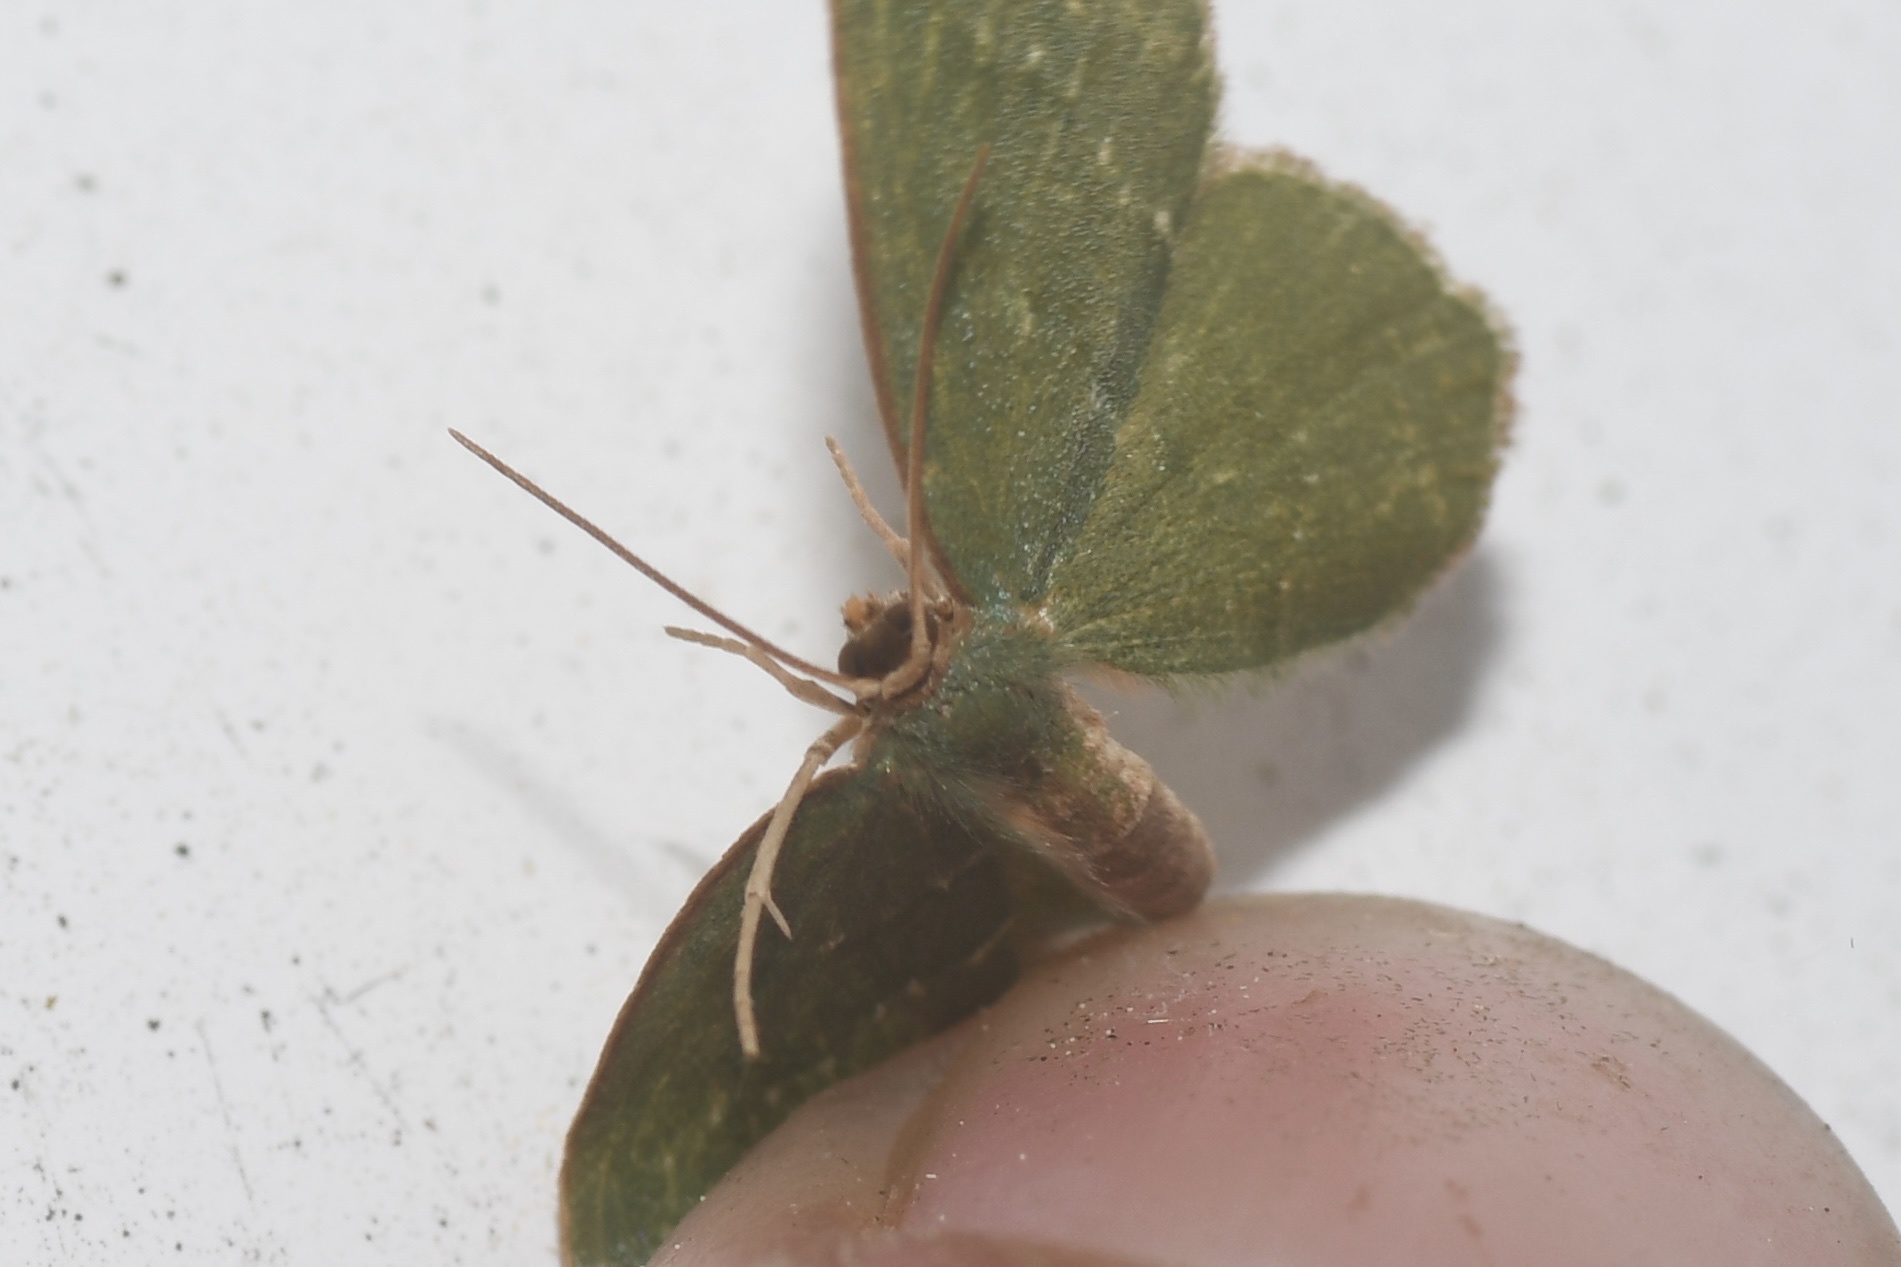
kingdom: Animalia
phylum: Arthropoda
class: Insecta
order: Lepidoptera
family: Geometridae
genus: Thalera
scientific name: Thalera pistasciaria
